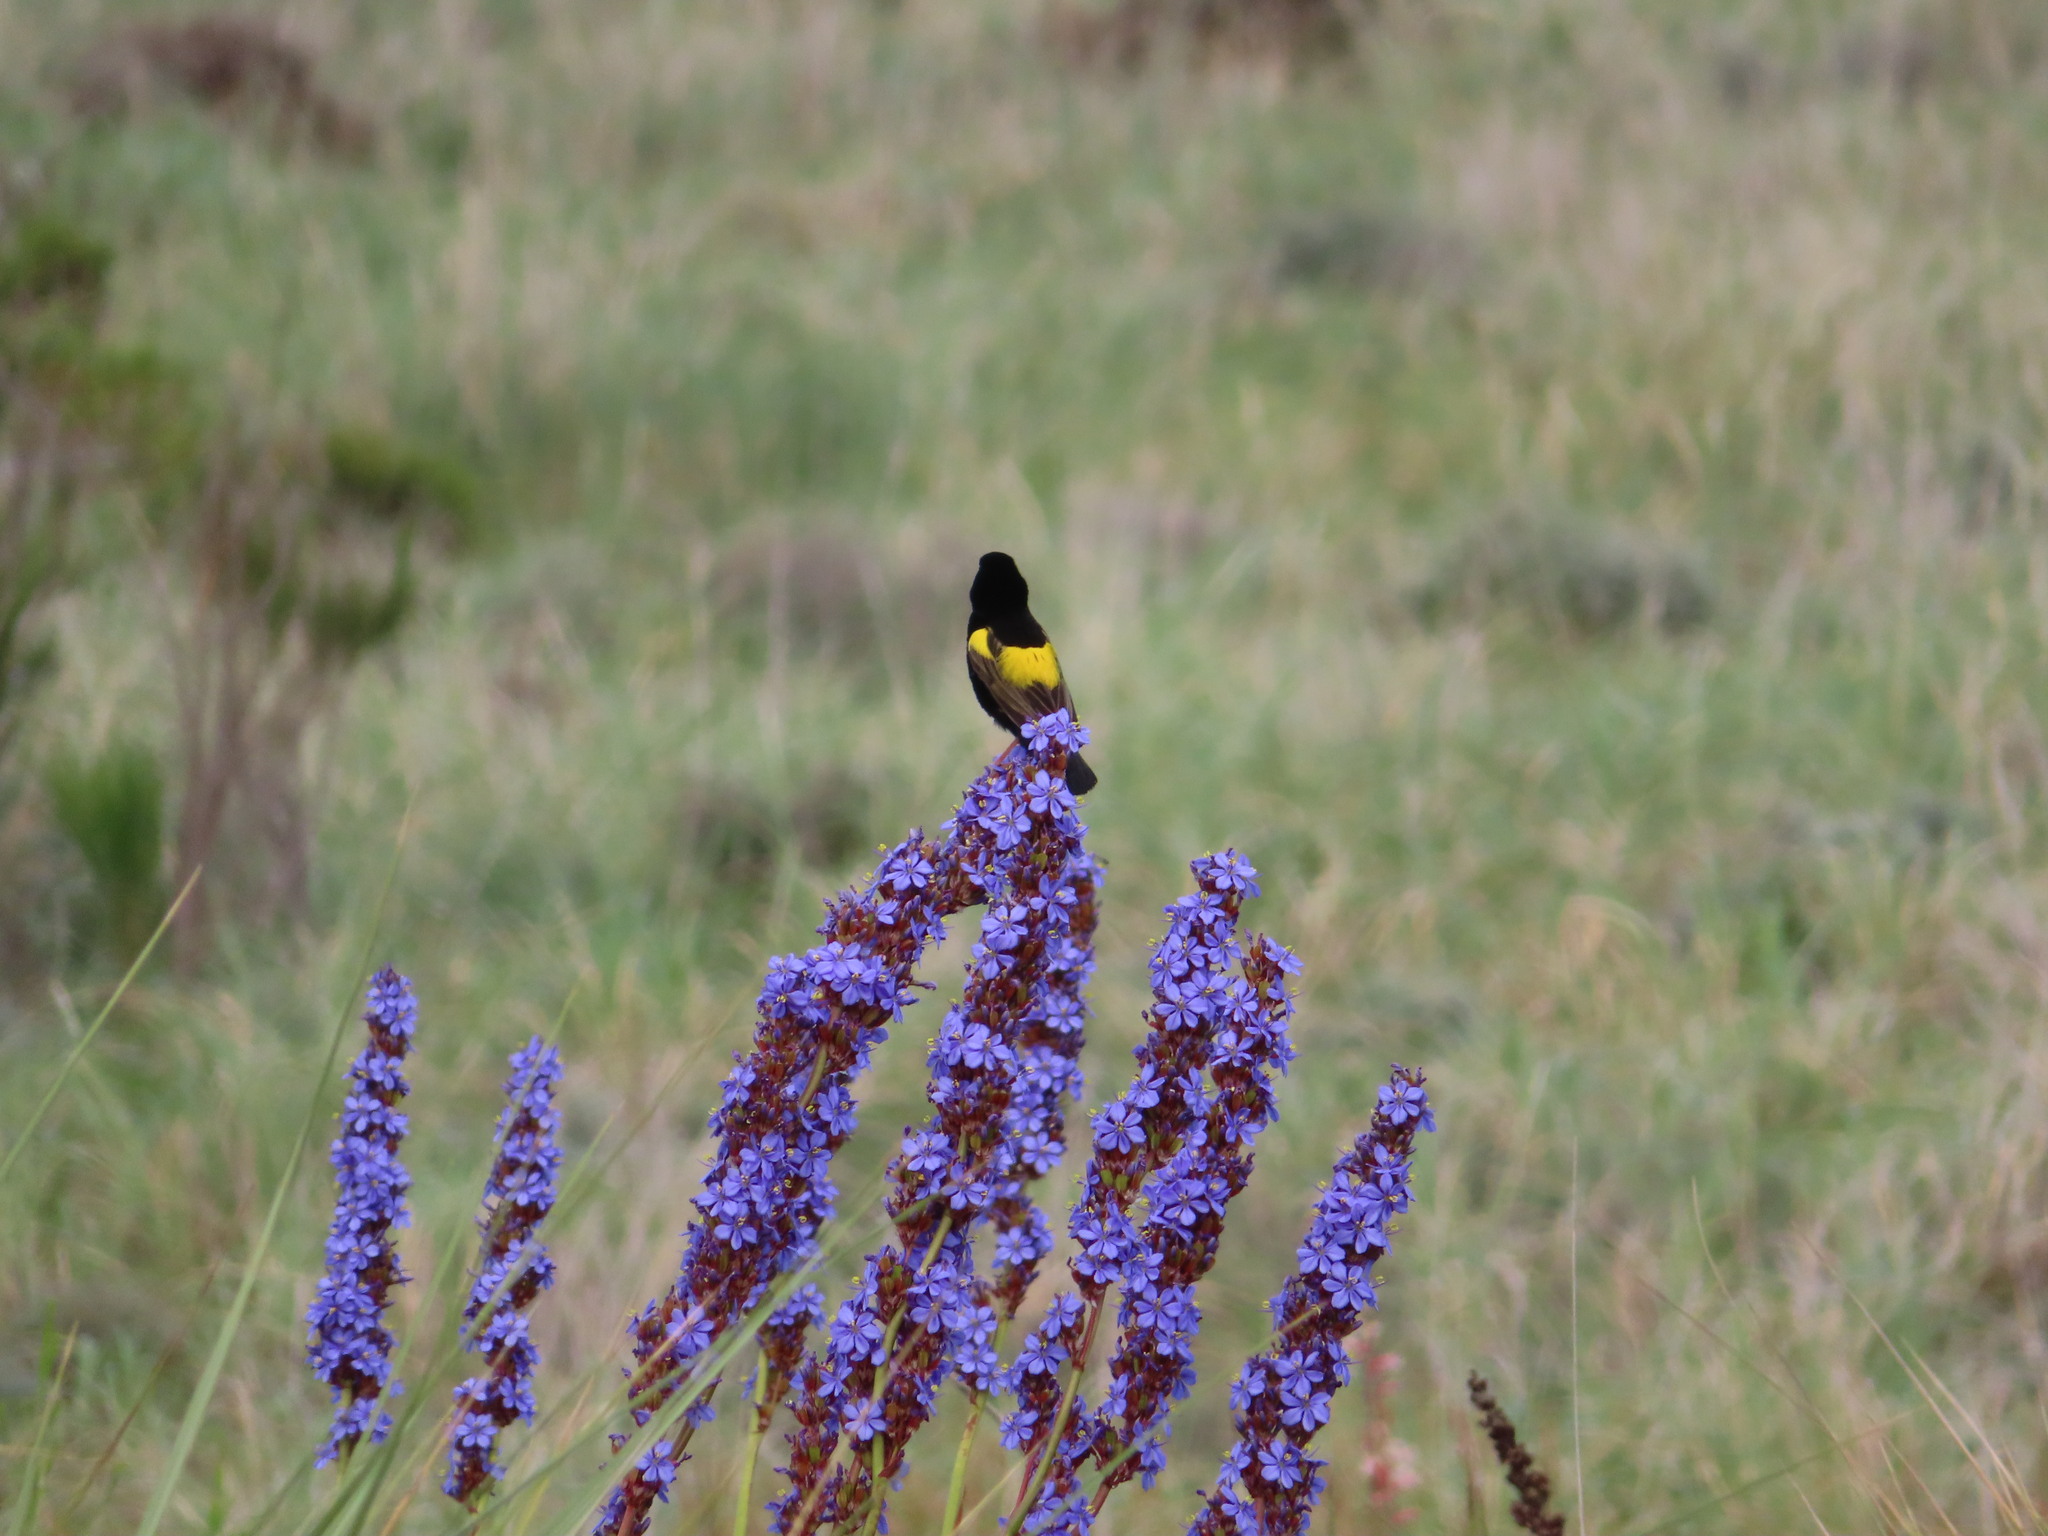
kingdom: Animalia
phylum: Chordata
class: Aves
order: Passeriformes
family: Ploceidae
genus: Euplectes
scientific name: Euplectes capensis
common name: Yellow bishop
